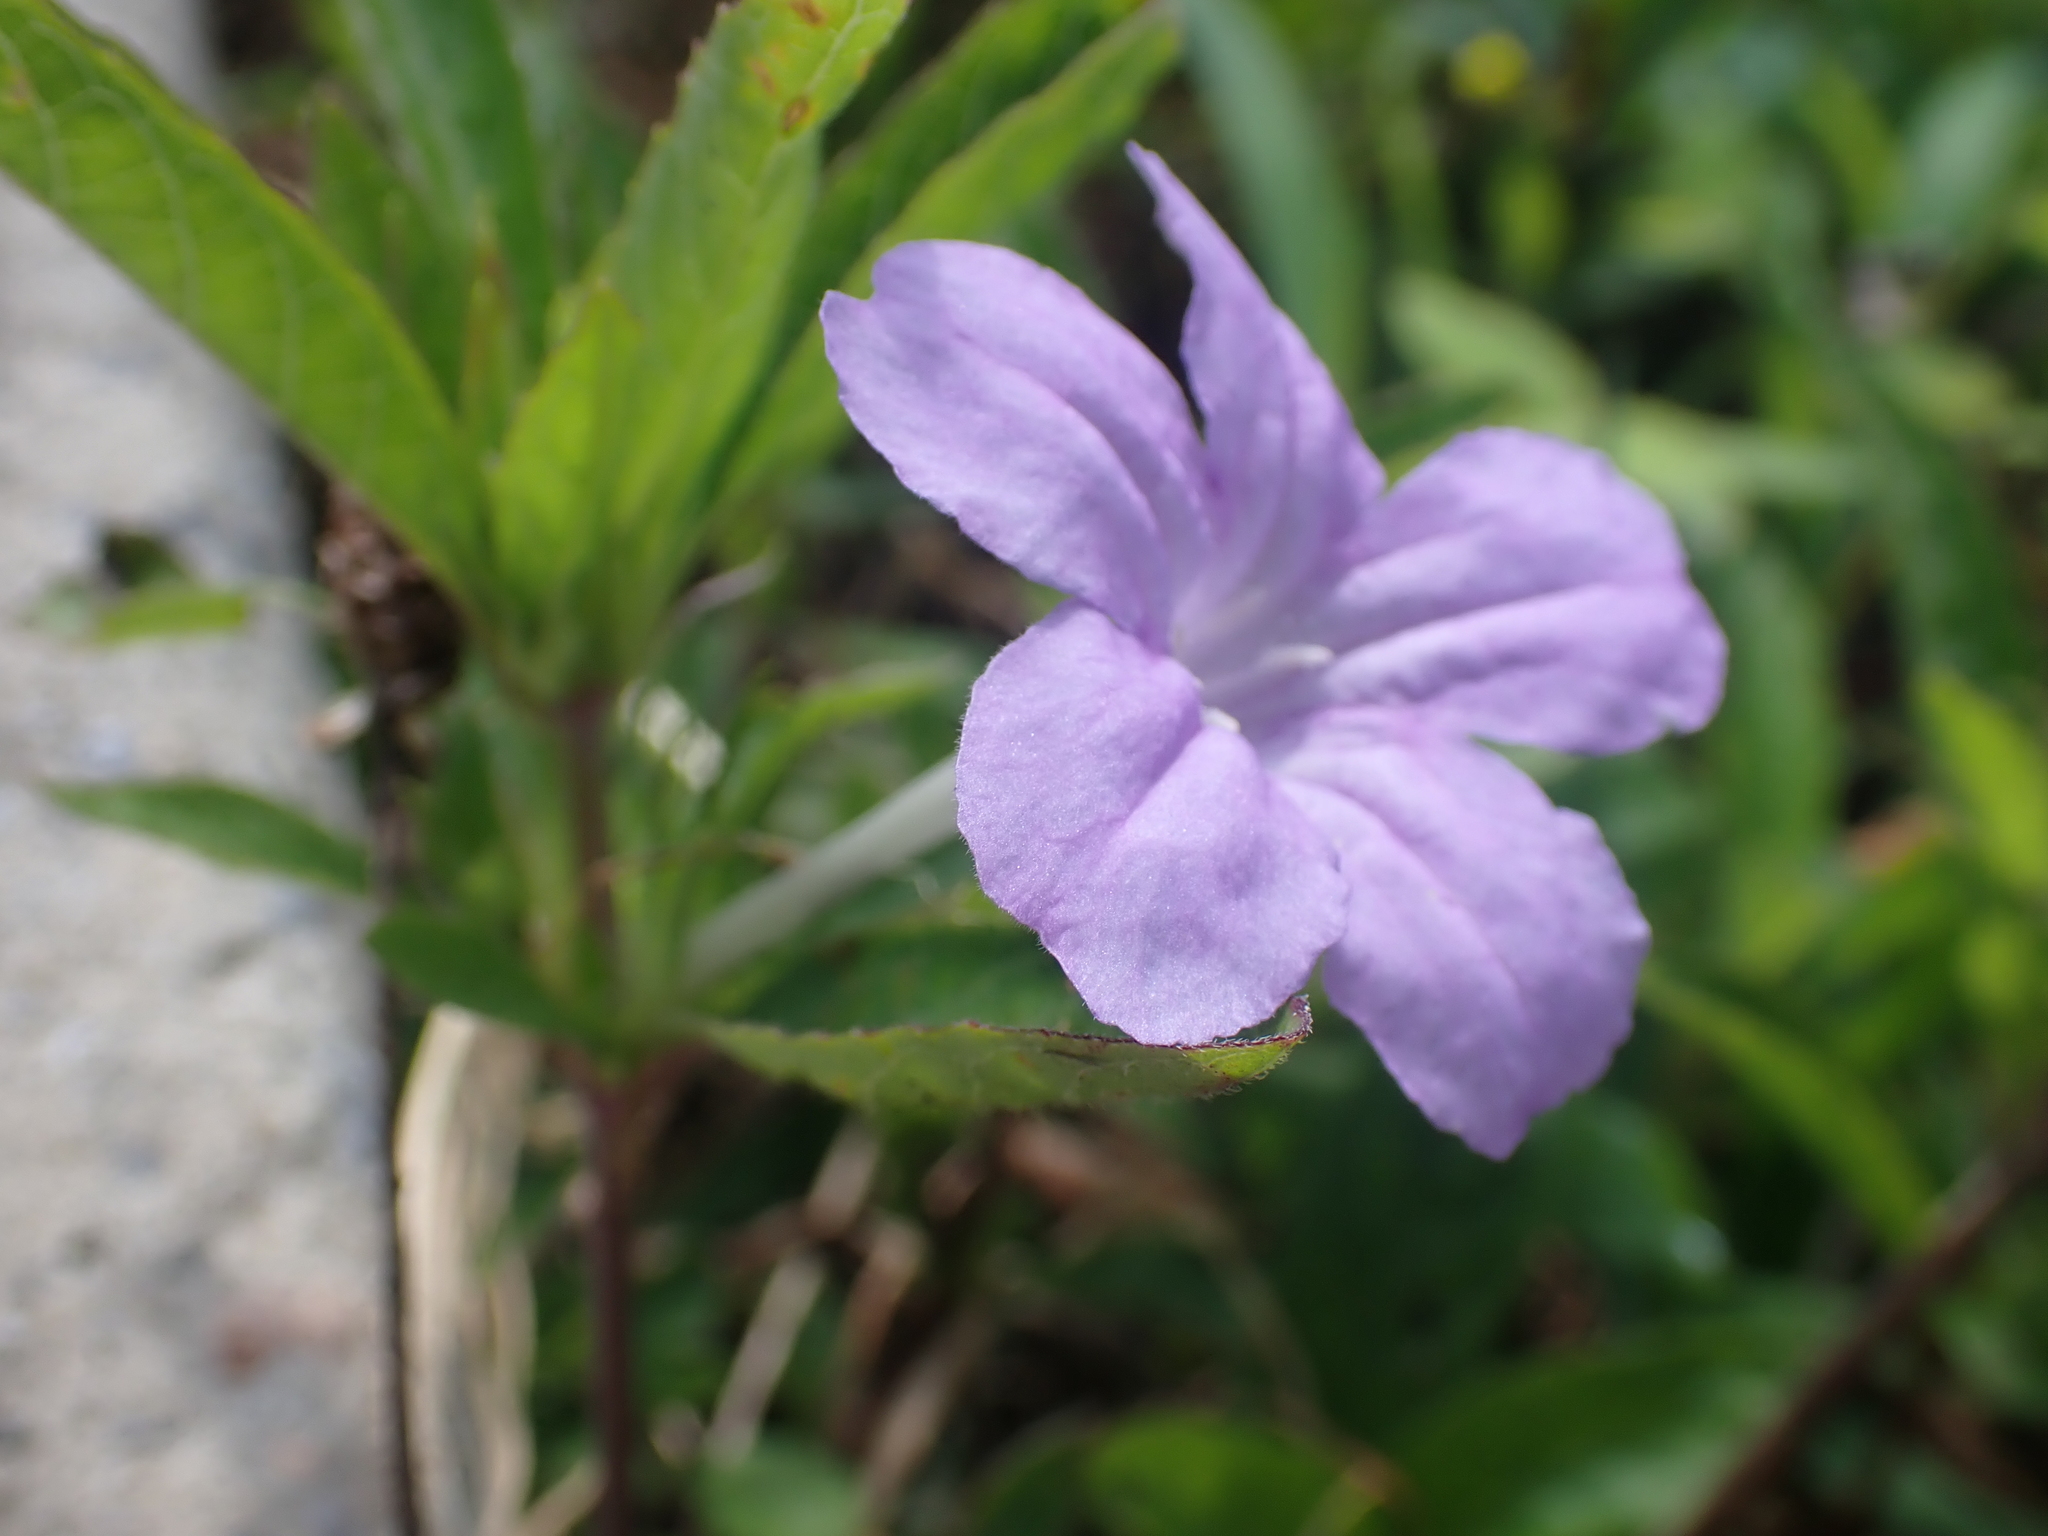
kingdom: Plantae
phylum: Tracheophyta
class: Magnoliopsida
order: Lamiales
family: Acanthaceae
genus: Ruellia
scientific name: Ruellia caroliniensis
